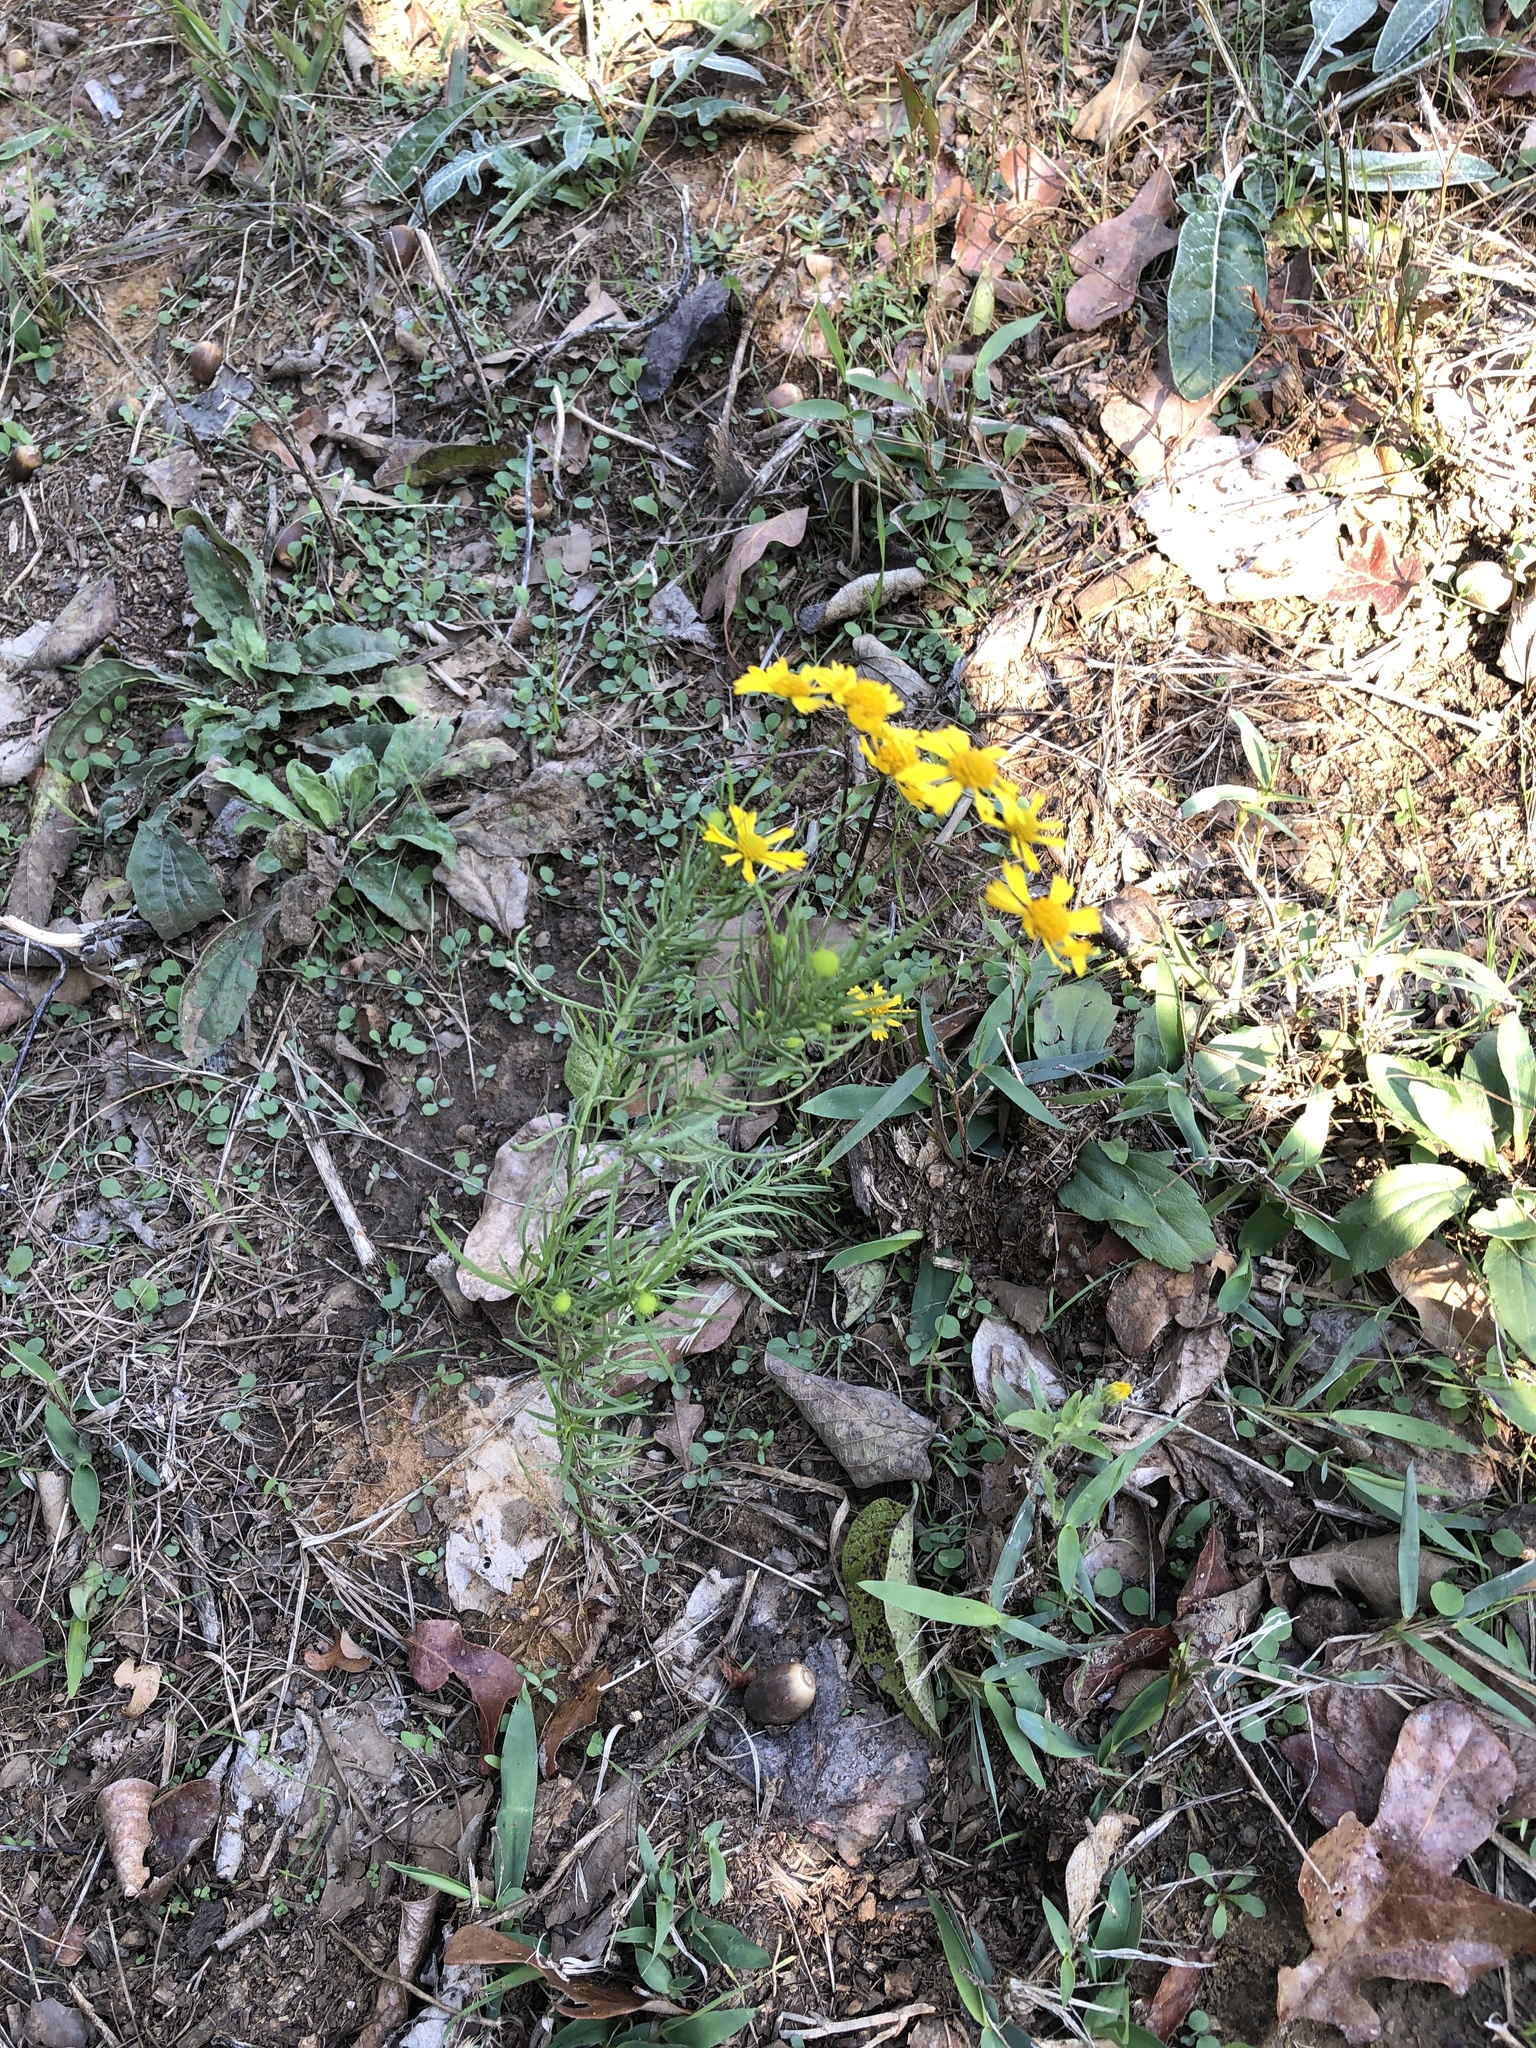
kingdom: Plantae
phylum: Tracheophyta
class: Magnoliopsida
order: Asterales
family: Asteraceae
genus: Helenium
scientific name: Helenium amarum
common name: Bitter sneezeweed
